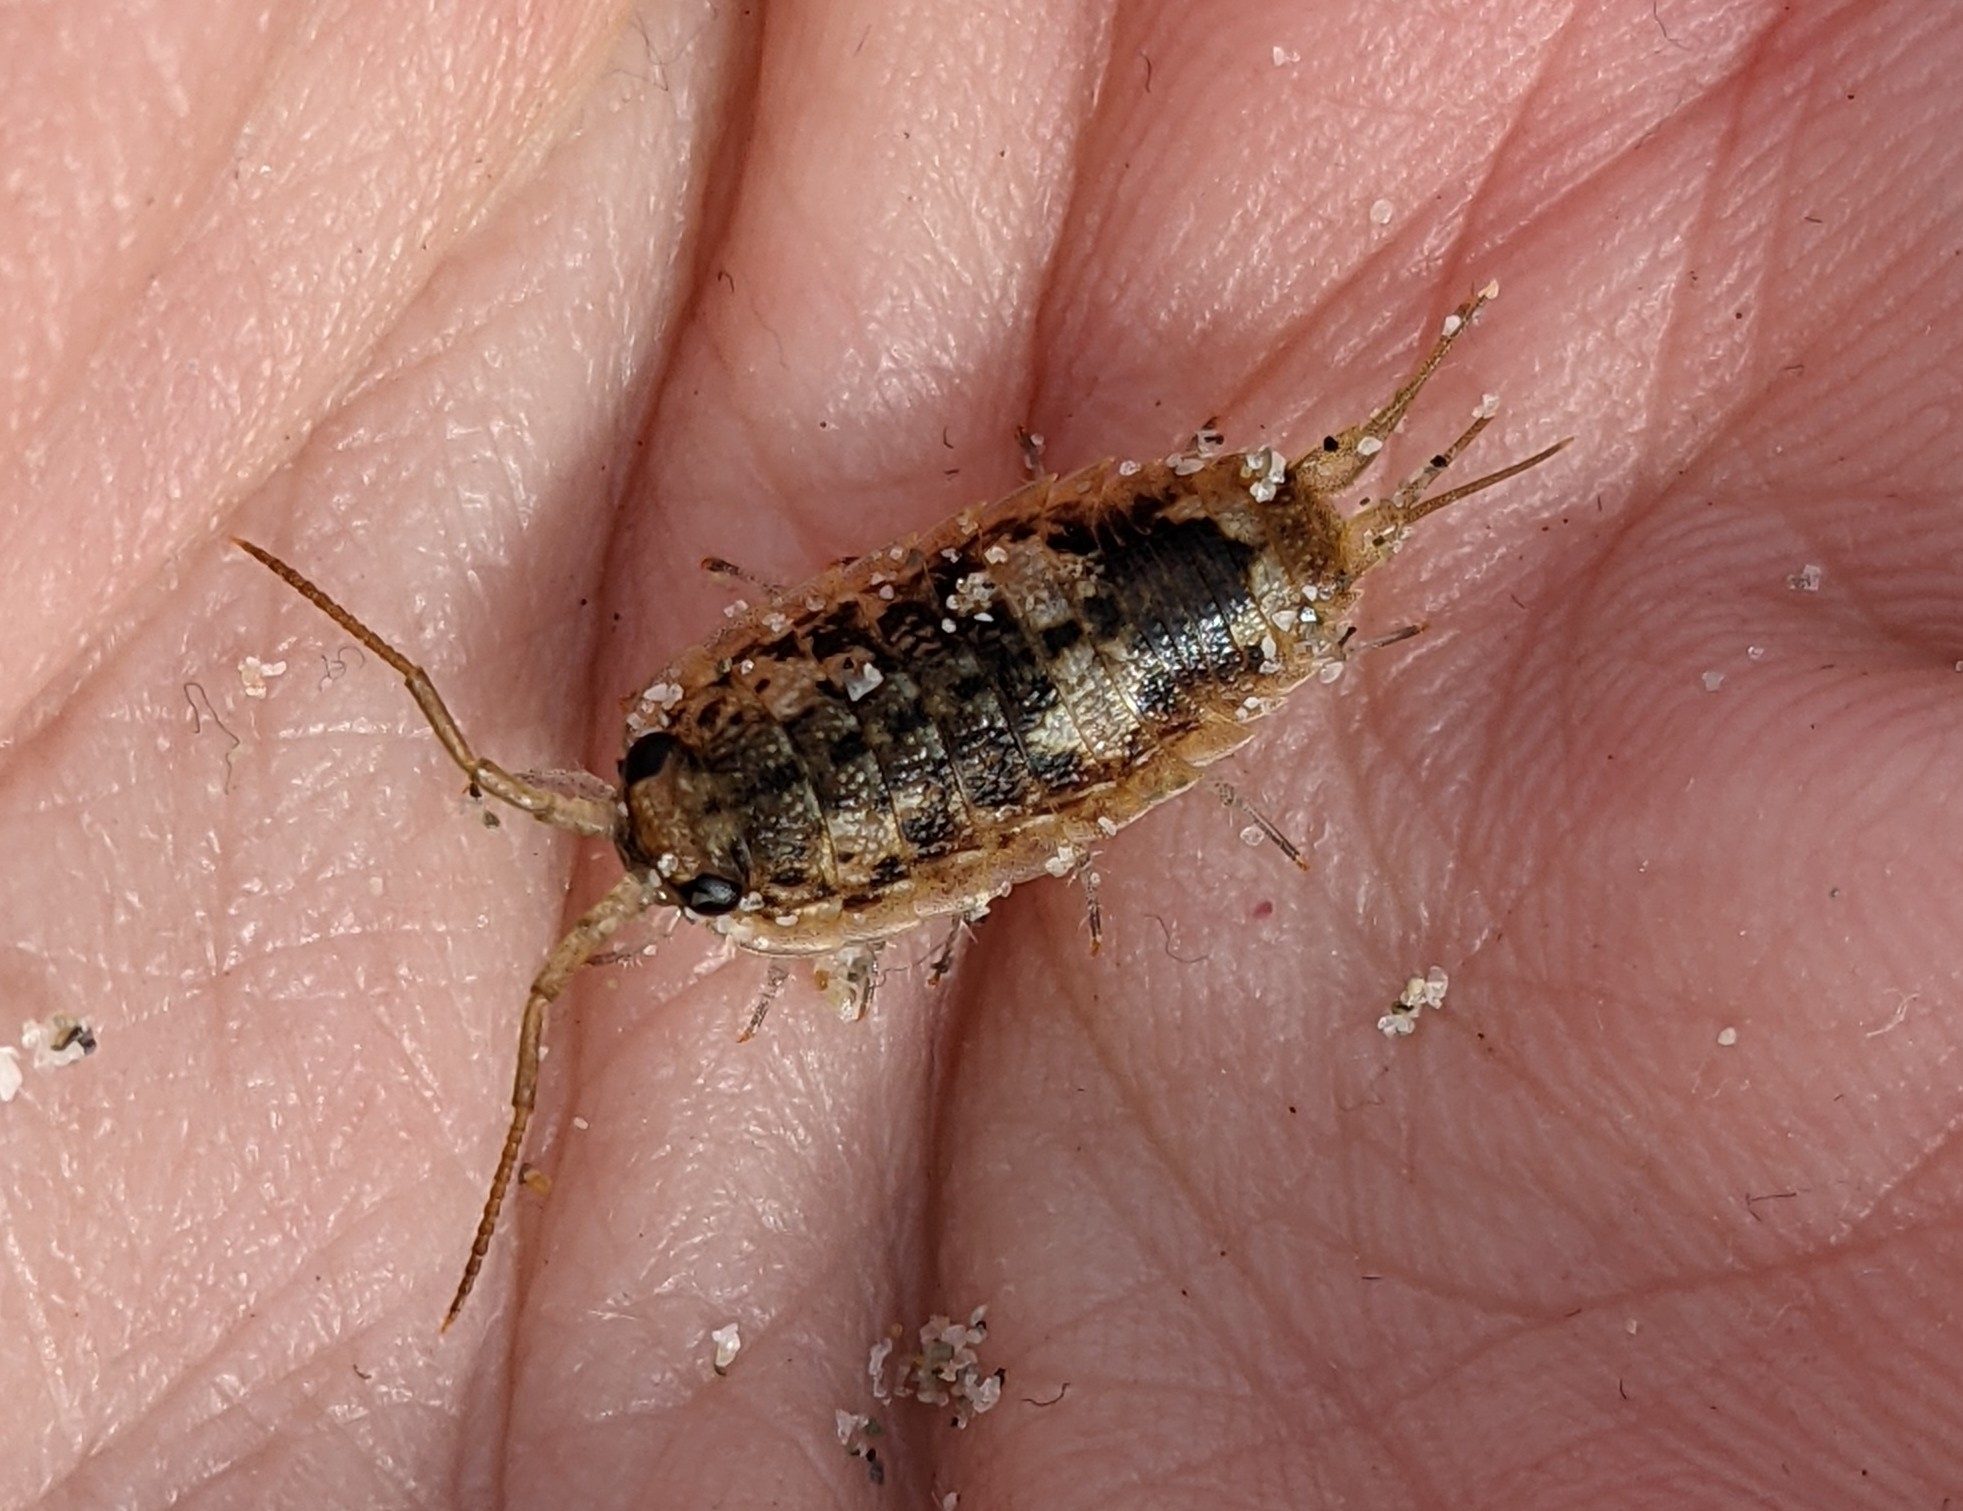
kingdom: Animalia
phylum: Arthropoda
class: Malacostraca
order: Isopoda
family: Ligiidae
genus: Ligia
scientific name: Ligia oceanica
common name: Sea slater
